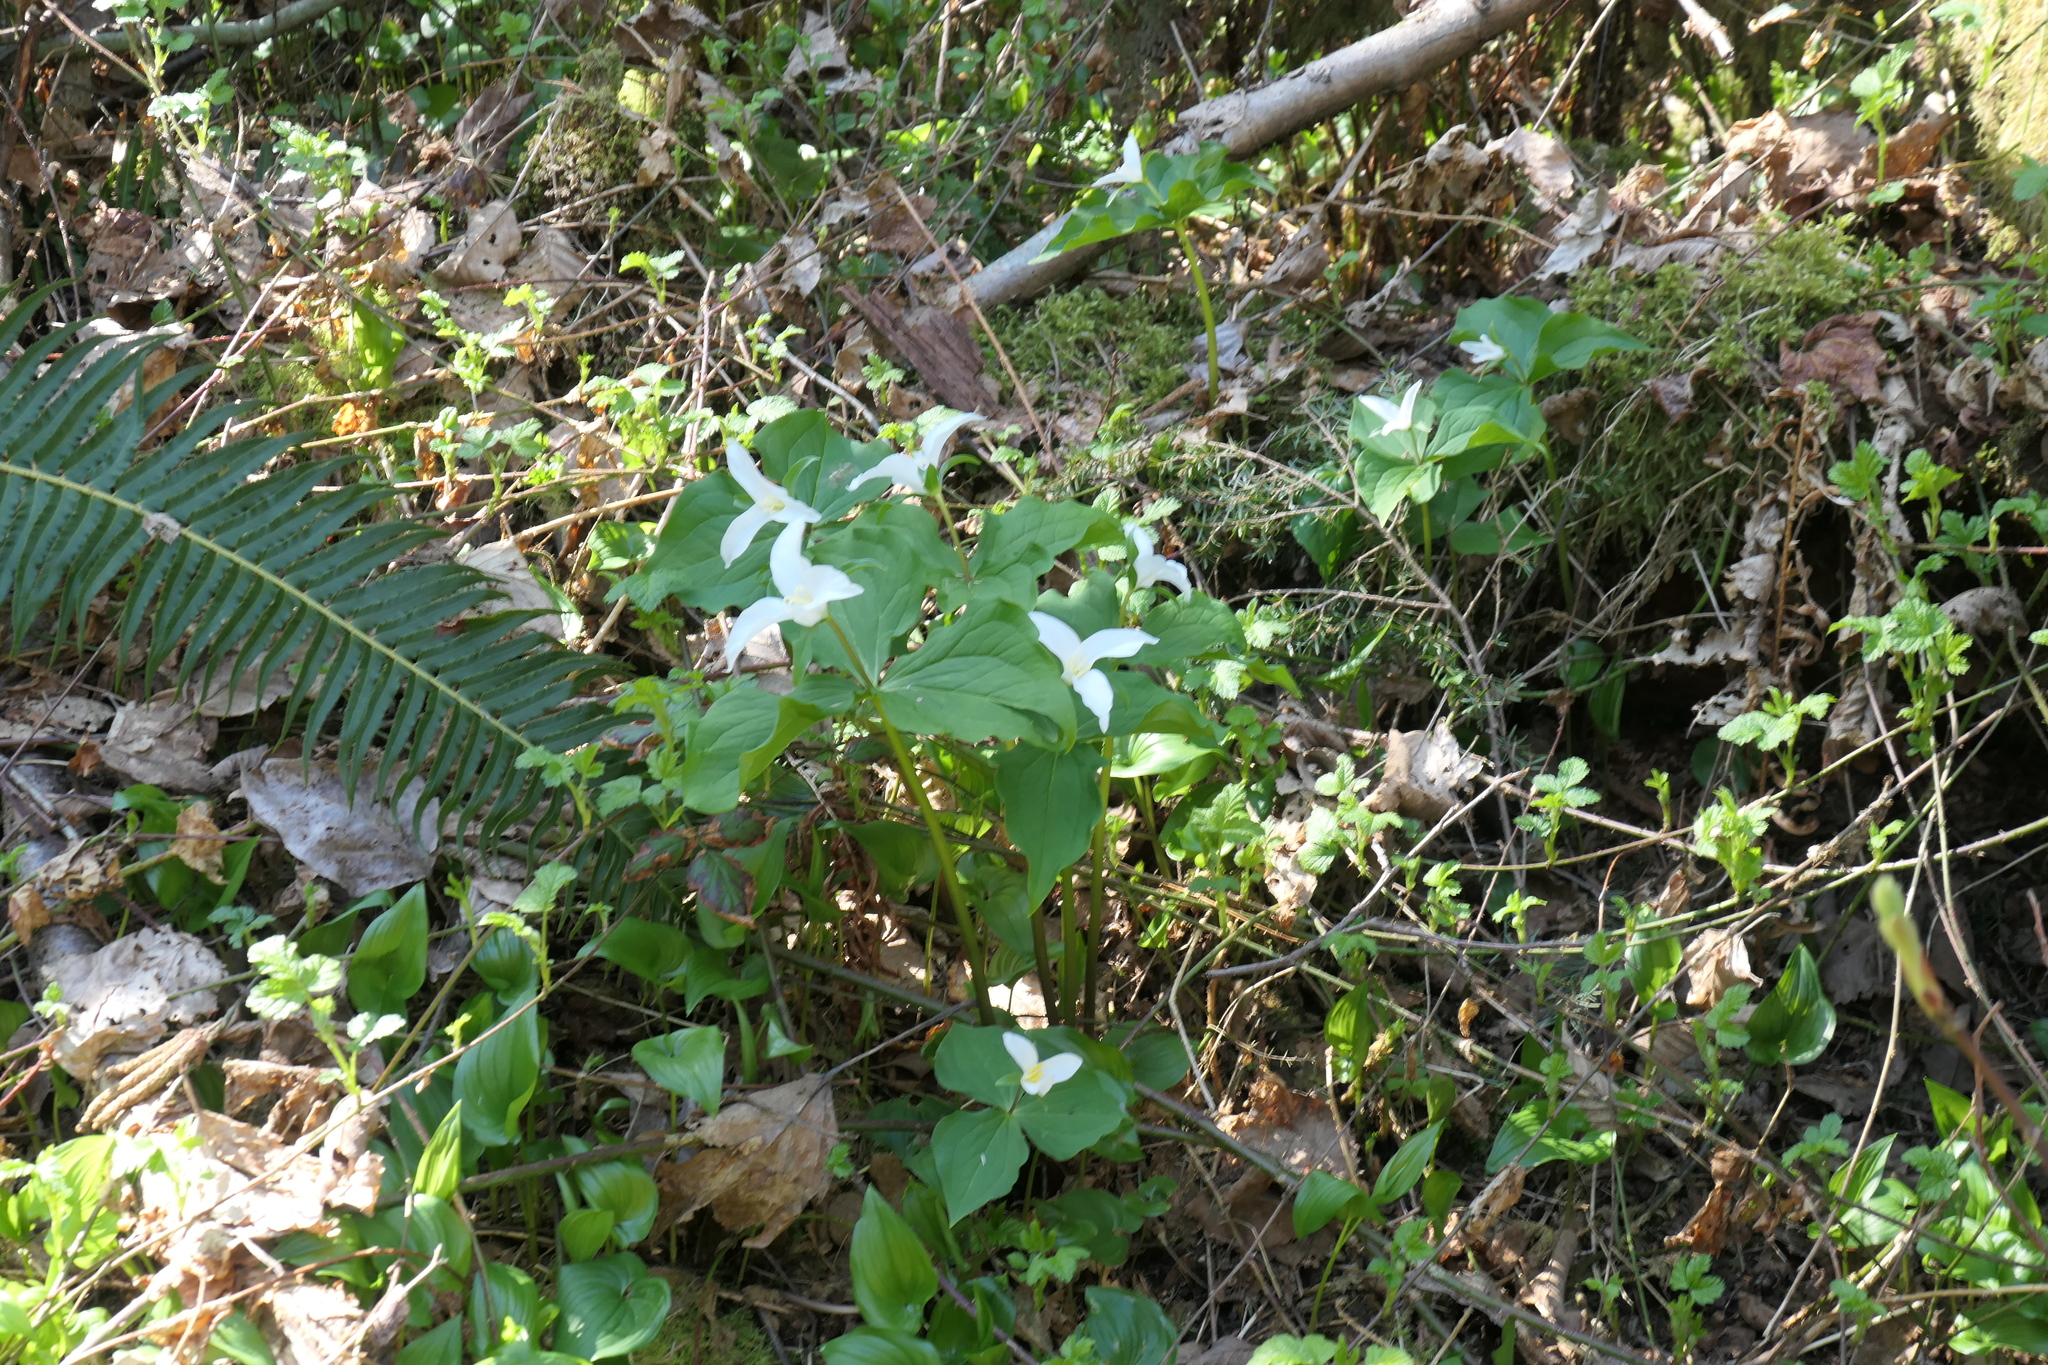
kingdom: Plantae
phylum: Tracheophyta
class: Liliopsida
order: Liliales
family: Melanthiaceae
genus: Trillium
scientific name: Trillium ovatum
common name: Pacific trillium
